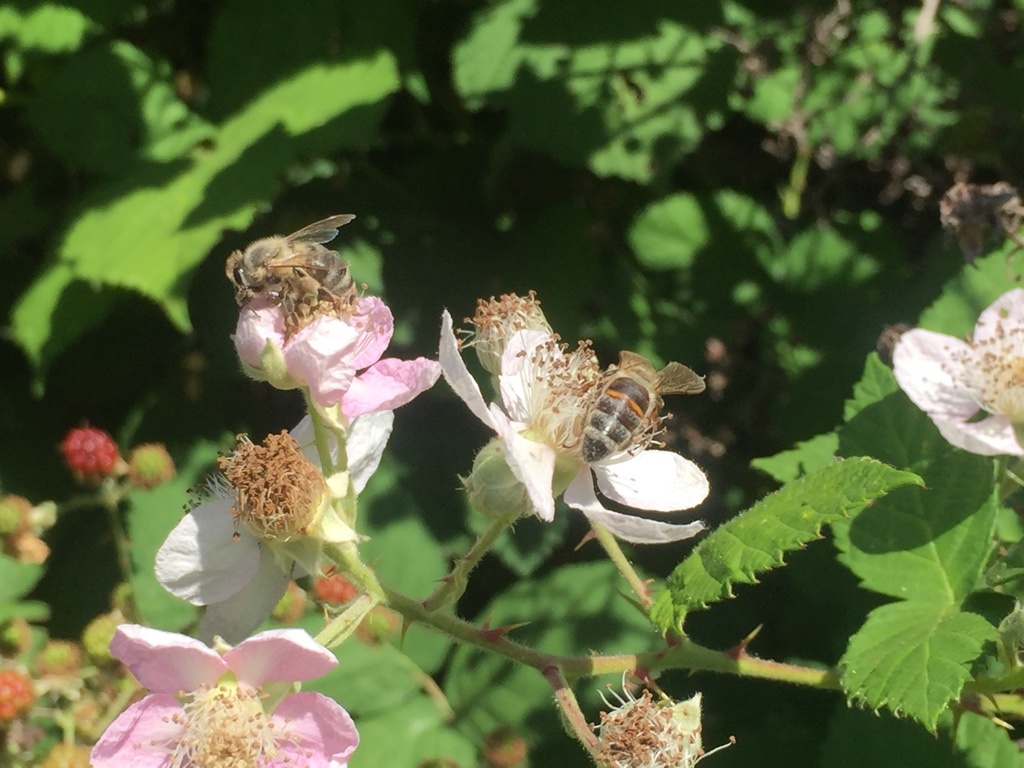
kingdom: Animalia
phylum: Arthropoda
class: Insecta
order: Hymenoptera
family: Apidae
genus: Apis
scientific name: Apis mellifera
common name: Honey bee
